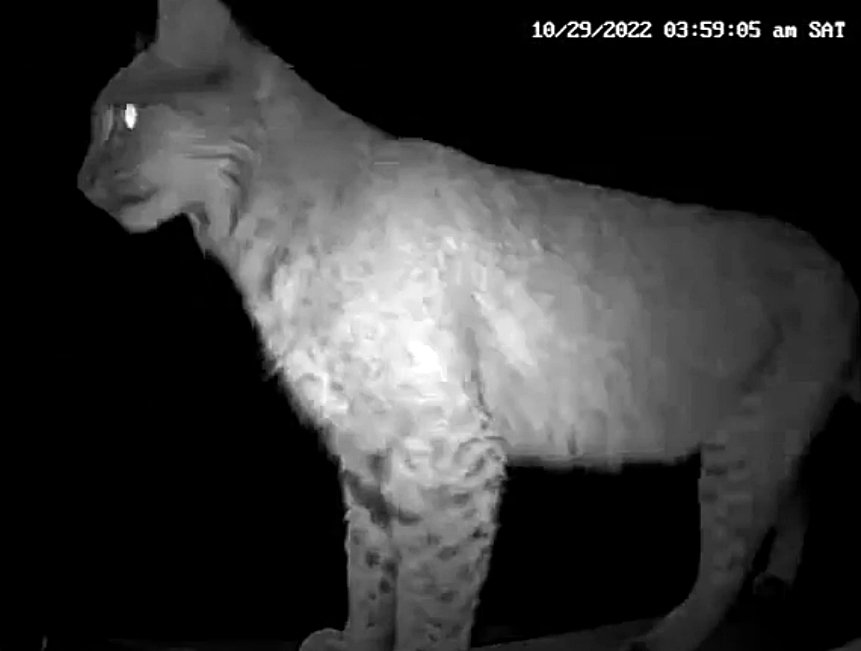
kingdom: Animalia
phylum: Chordata
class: Mammalia
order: Carnivora
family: Felidae
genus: Lynx
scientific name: Lynx rufus
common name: Bobcat
